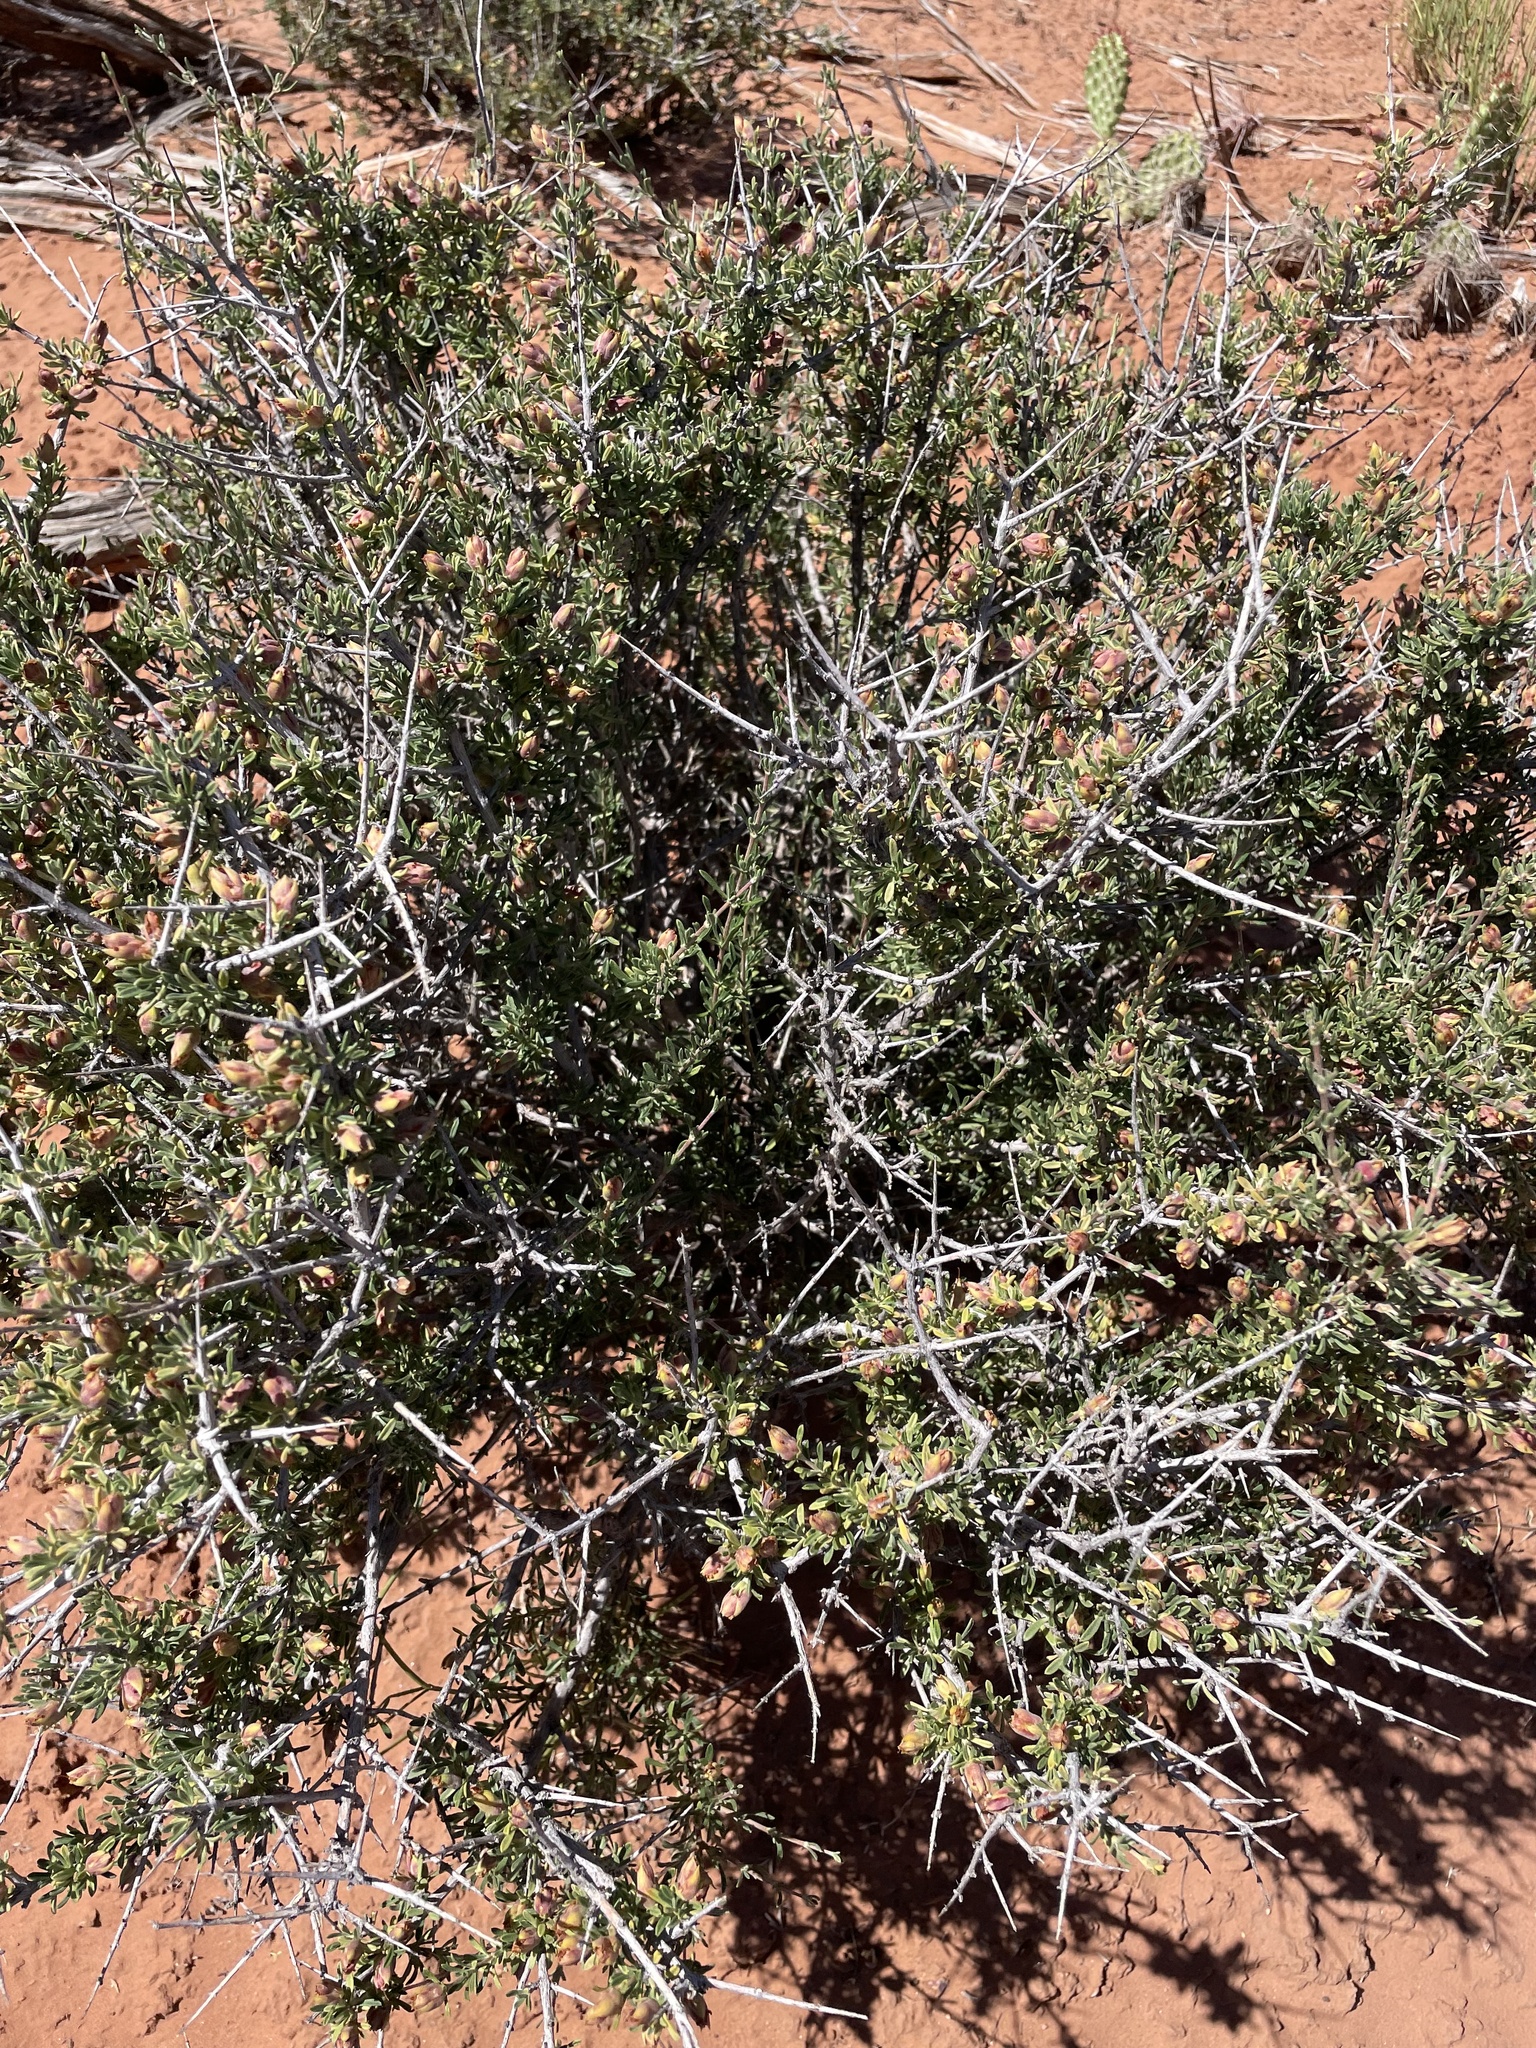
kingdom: Plantae
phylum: Tracheophyta
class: Magnoliopsida
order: Rosales
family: Rosaceae
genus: Coleogyne
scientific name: Coleogyne ramosissima
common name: Blackbrush
